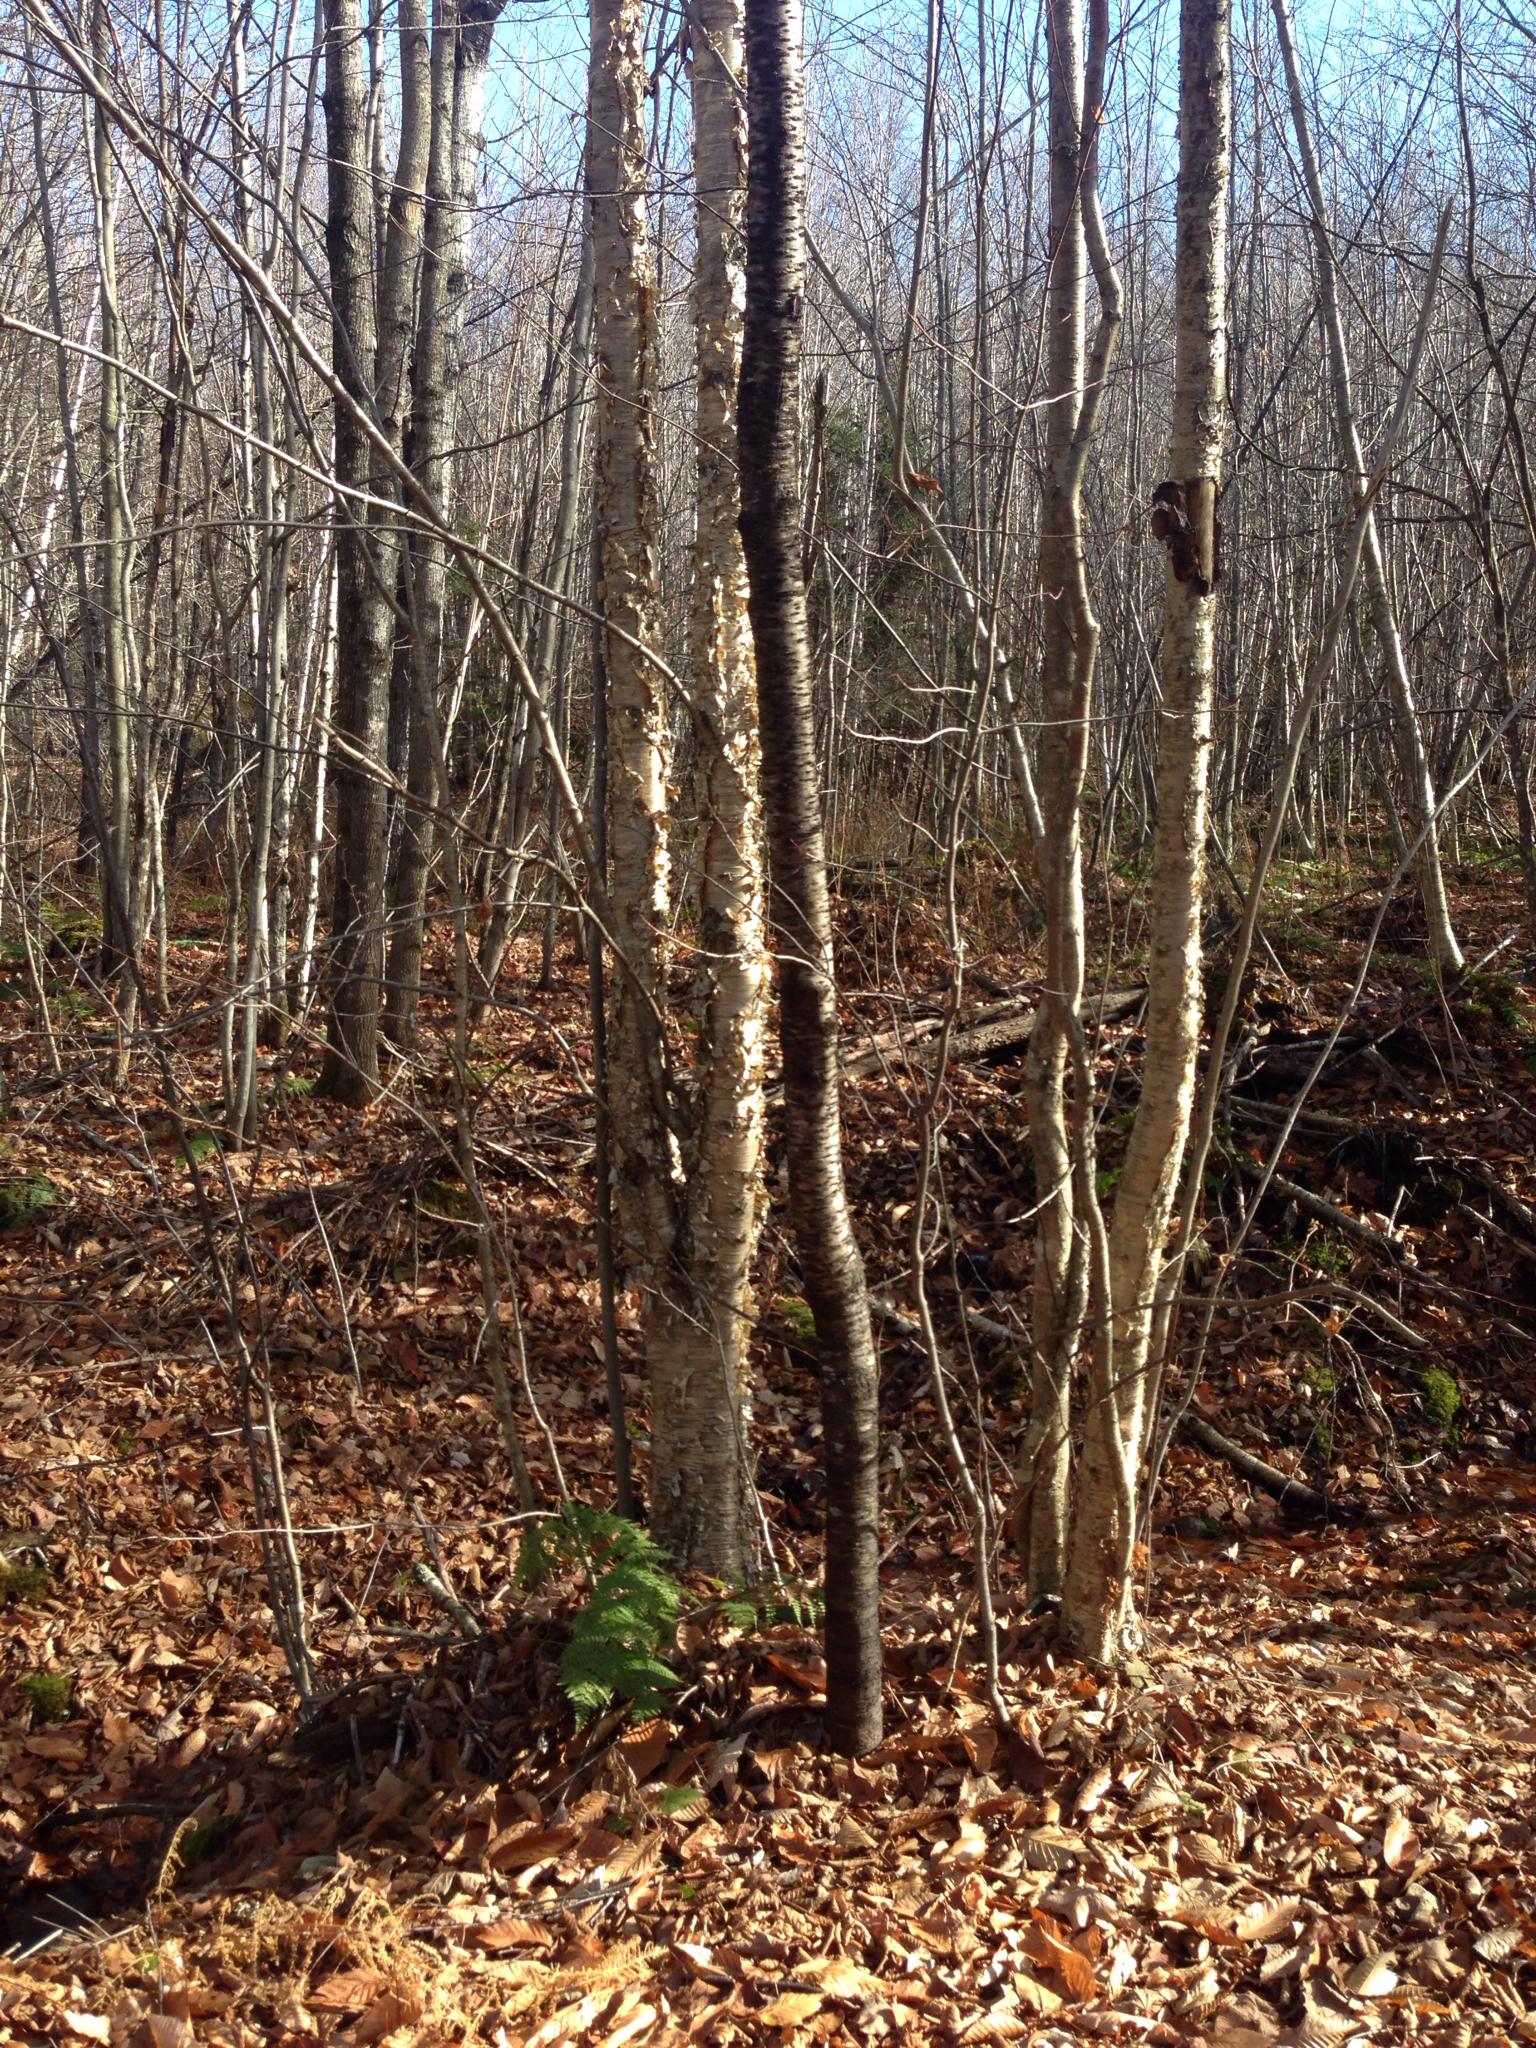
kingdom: Plantae
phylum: Tracheophyta
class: Magnoliopsida
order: Fagales
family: Betulaceae
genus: Betula
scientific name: Betula alleghaniensis
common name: Yellow birch
